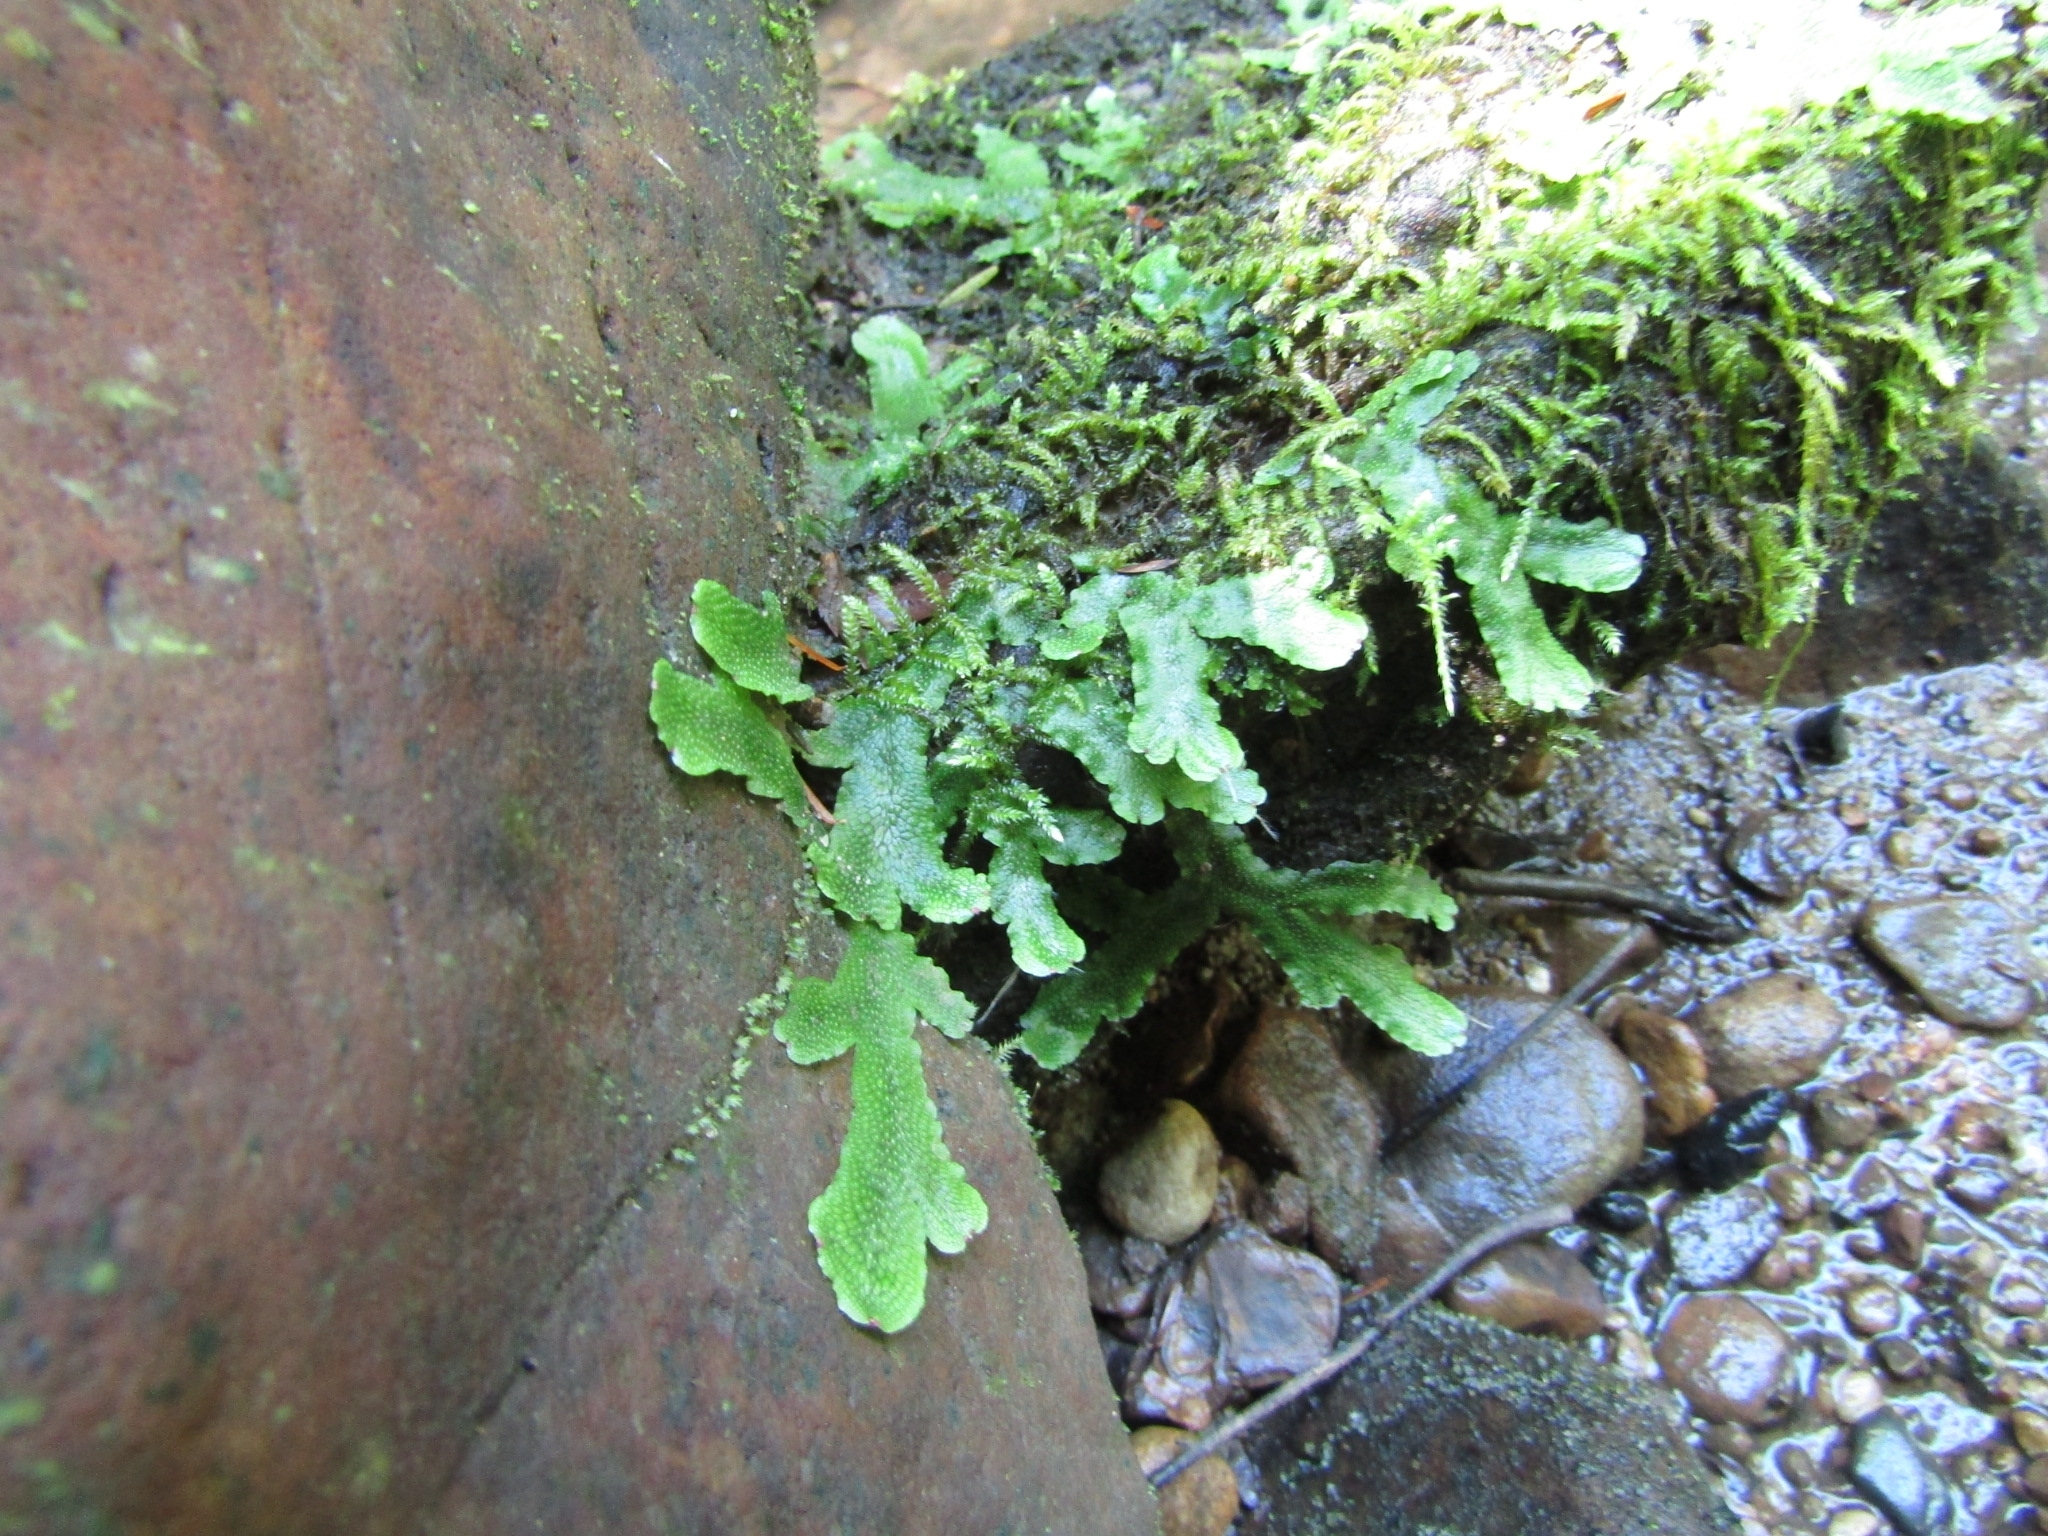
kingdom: Plantae
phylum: Marchantiophyta
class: Marchantiopsida
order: Marchantiales
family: Conocephalaceae
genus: Conocephalum
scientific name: Conocephalum salebrosum
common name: Cat-tongue liverwort
